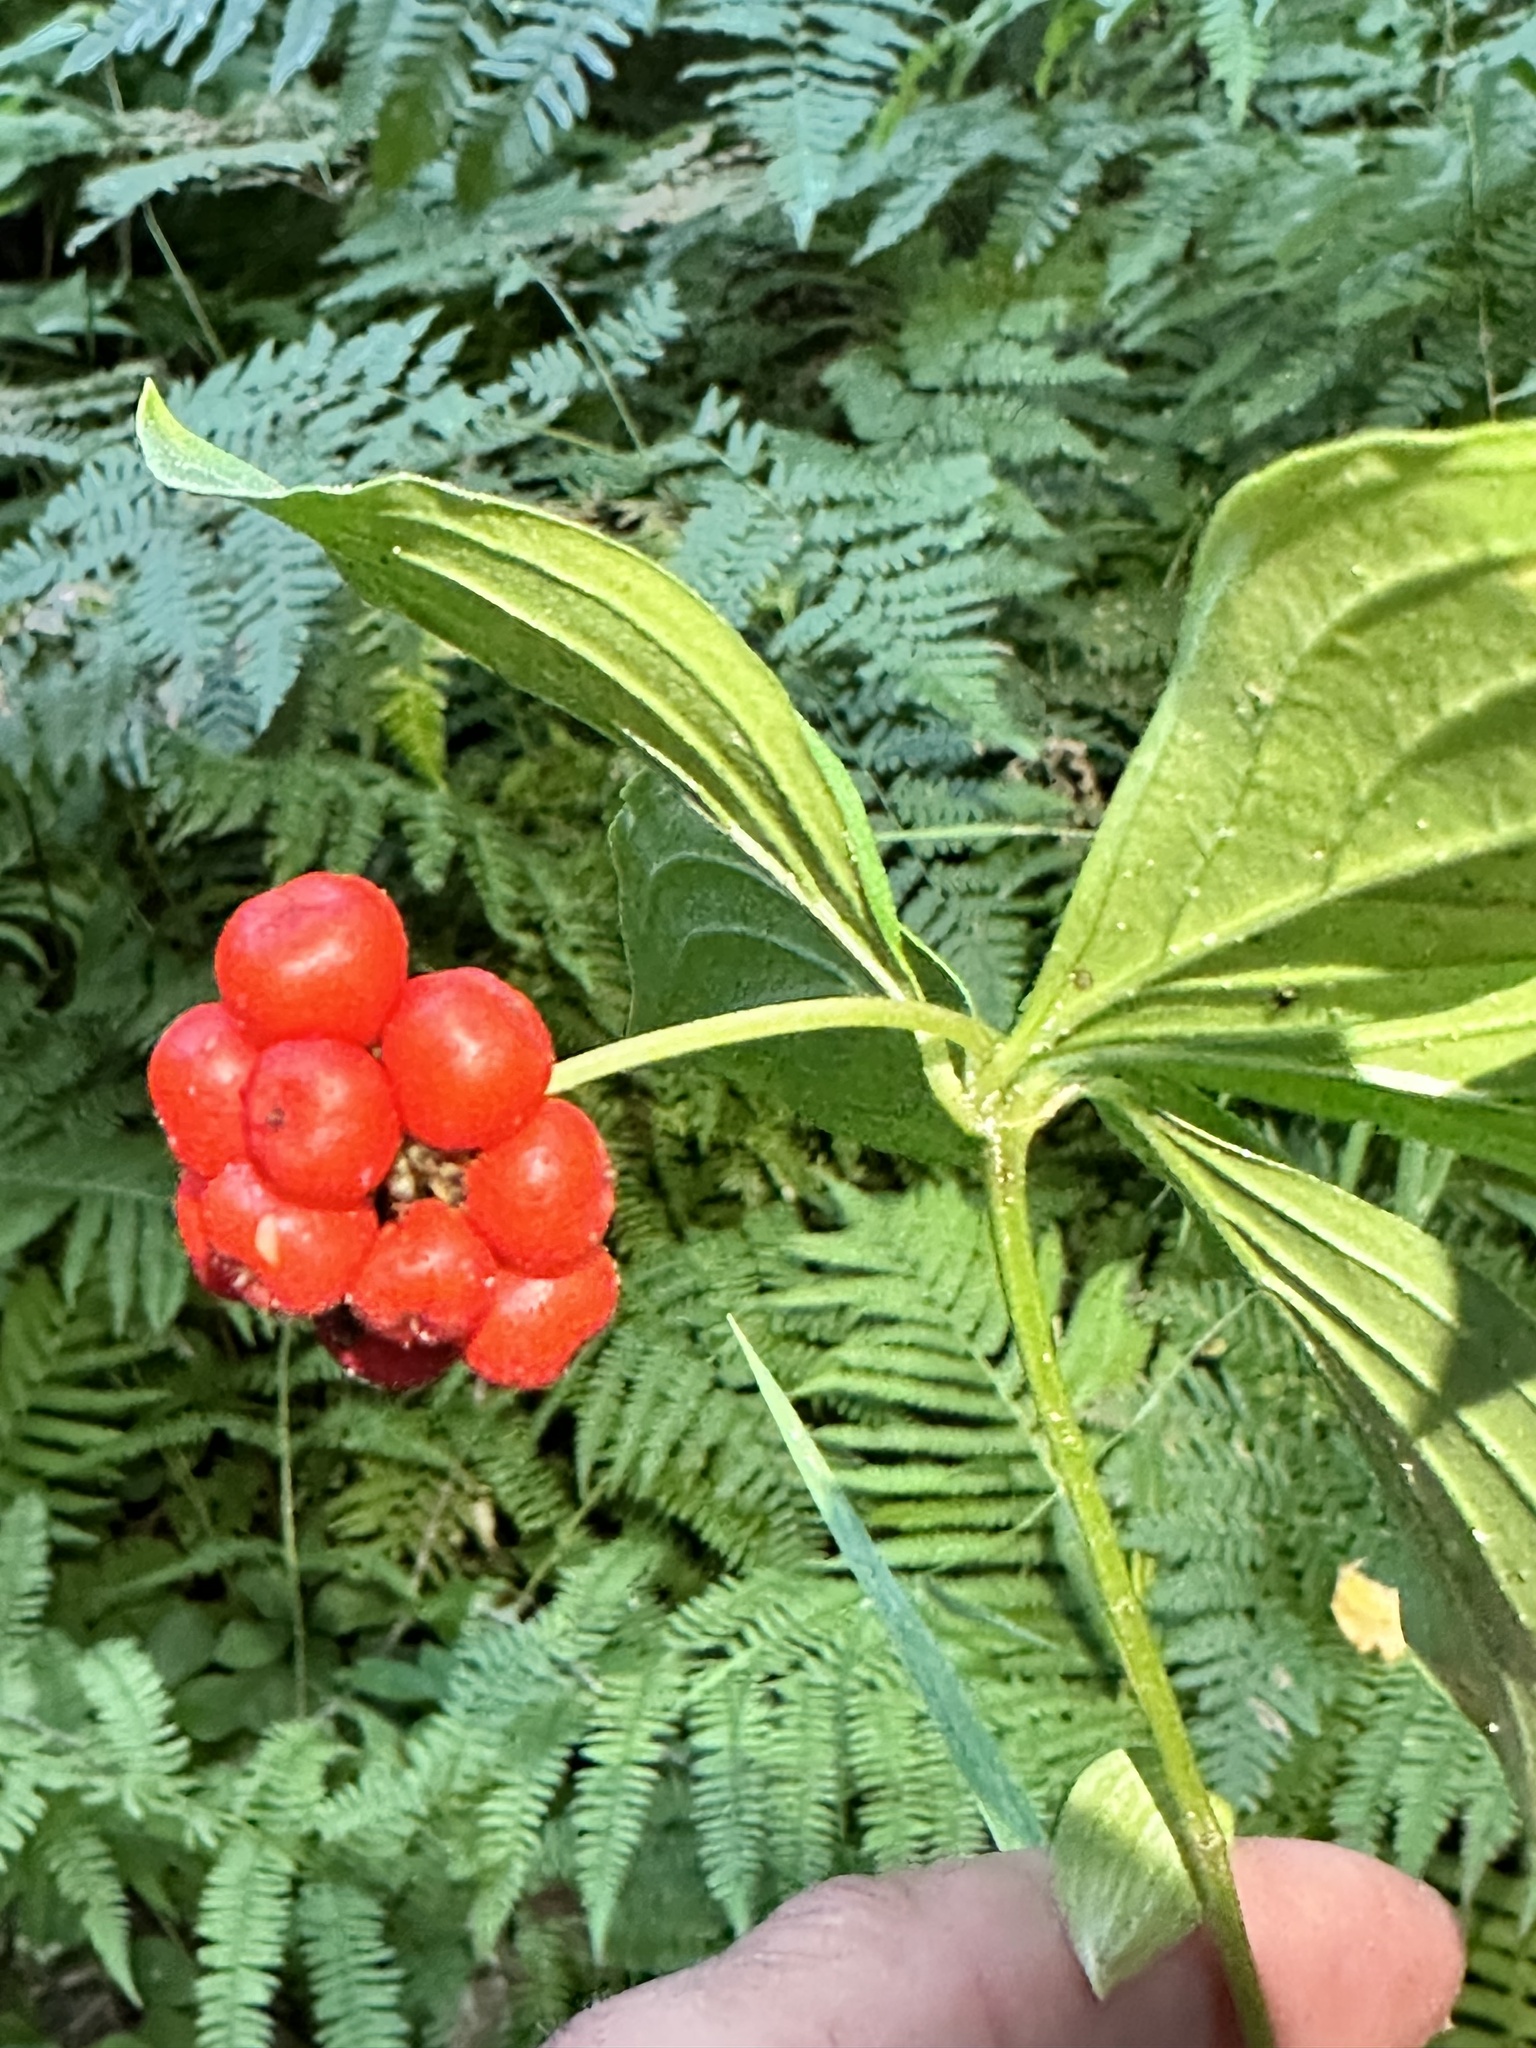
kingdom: Plantae
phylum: Tracheophyta
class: Magnoliopsida
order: Cornales
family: Cornaceae
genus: Cornus
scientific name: Cornus canadensis
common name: Creeping dogwood
